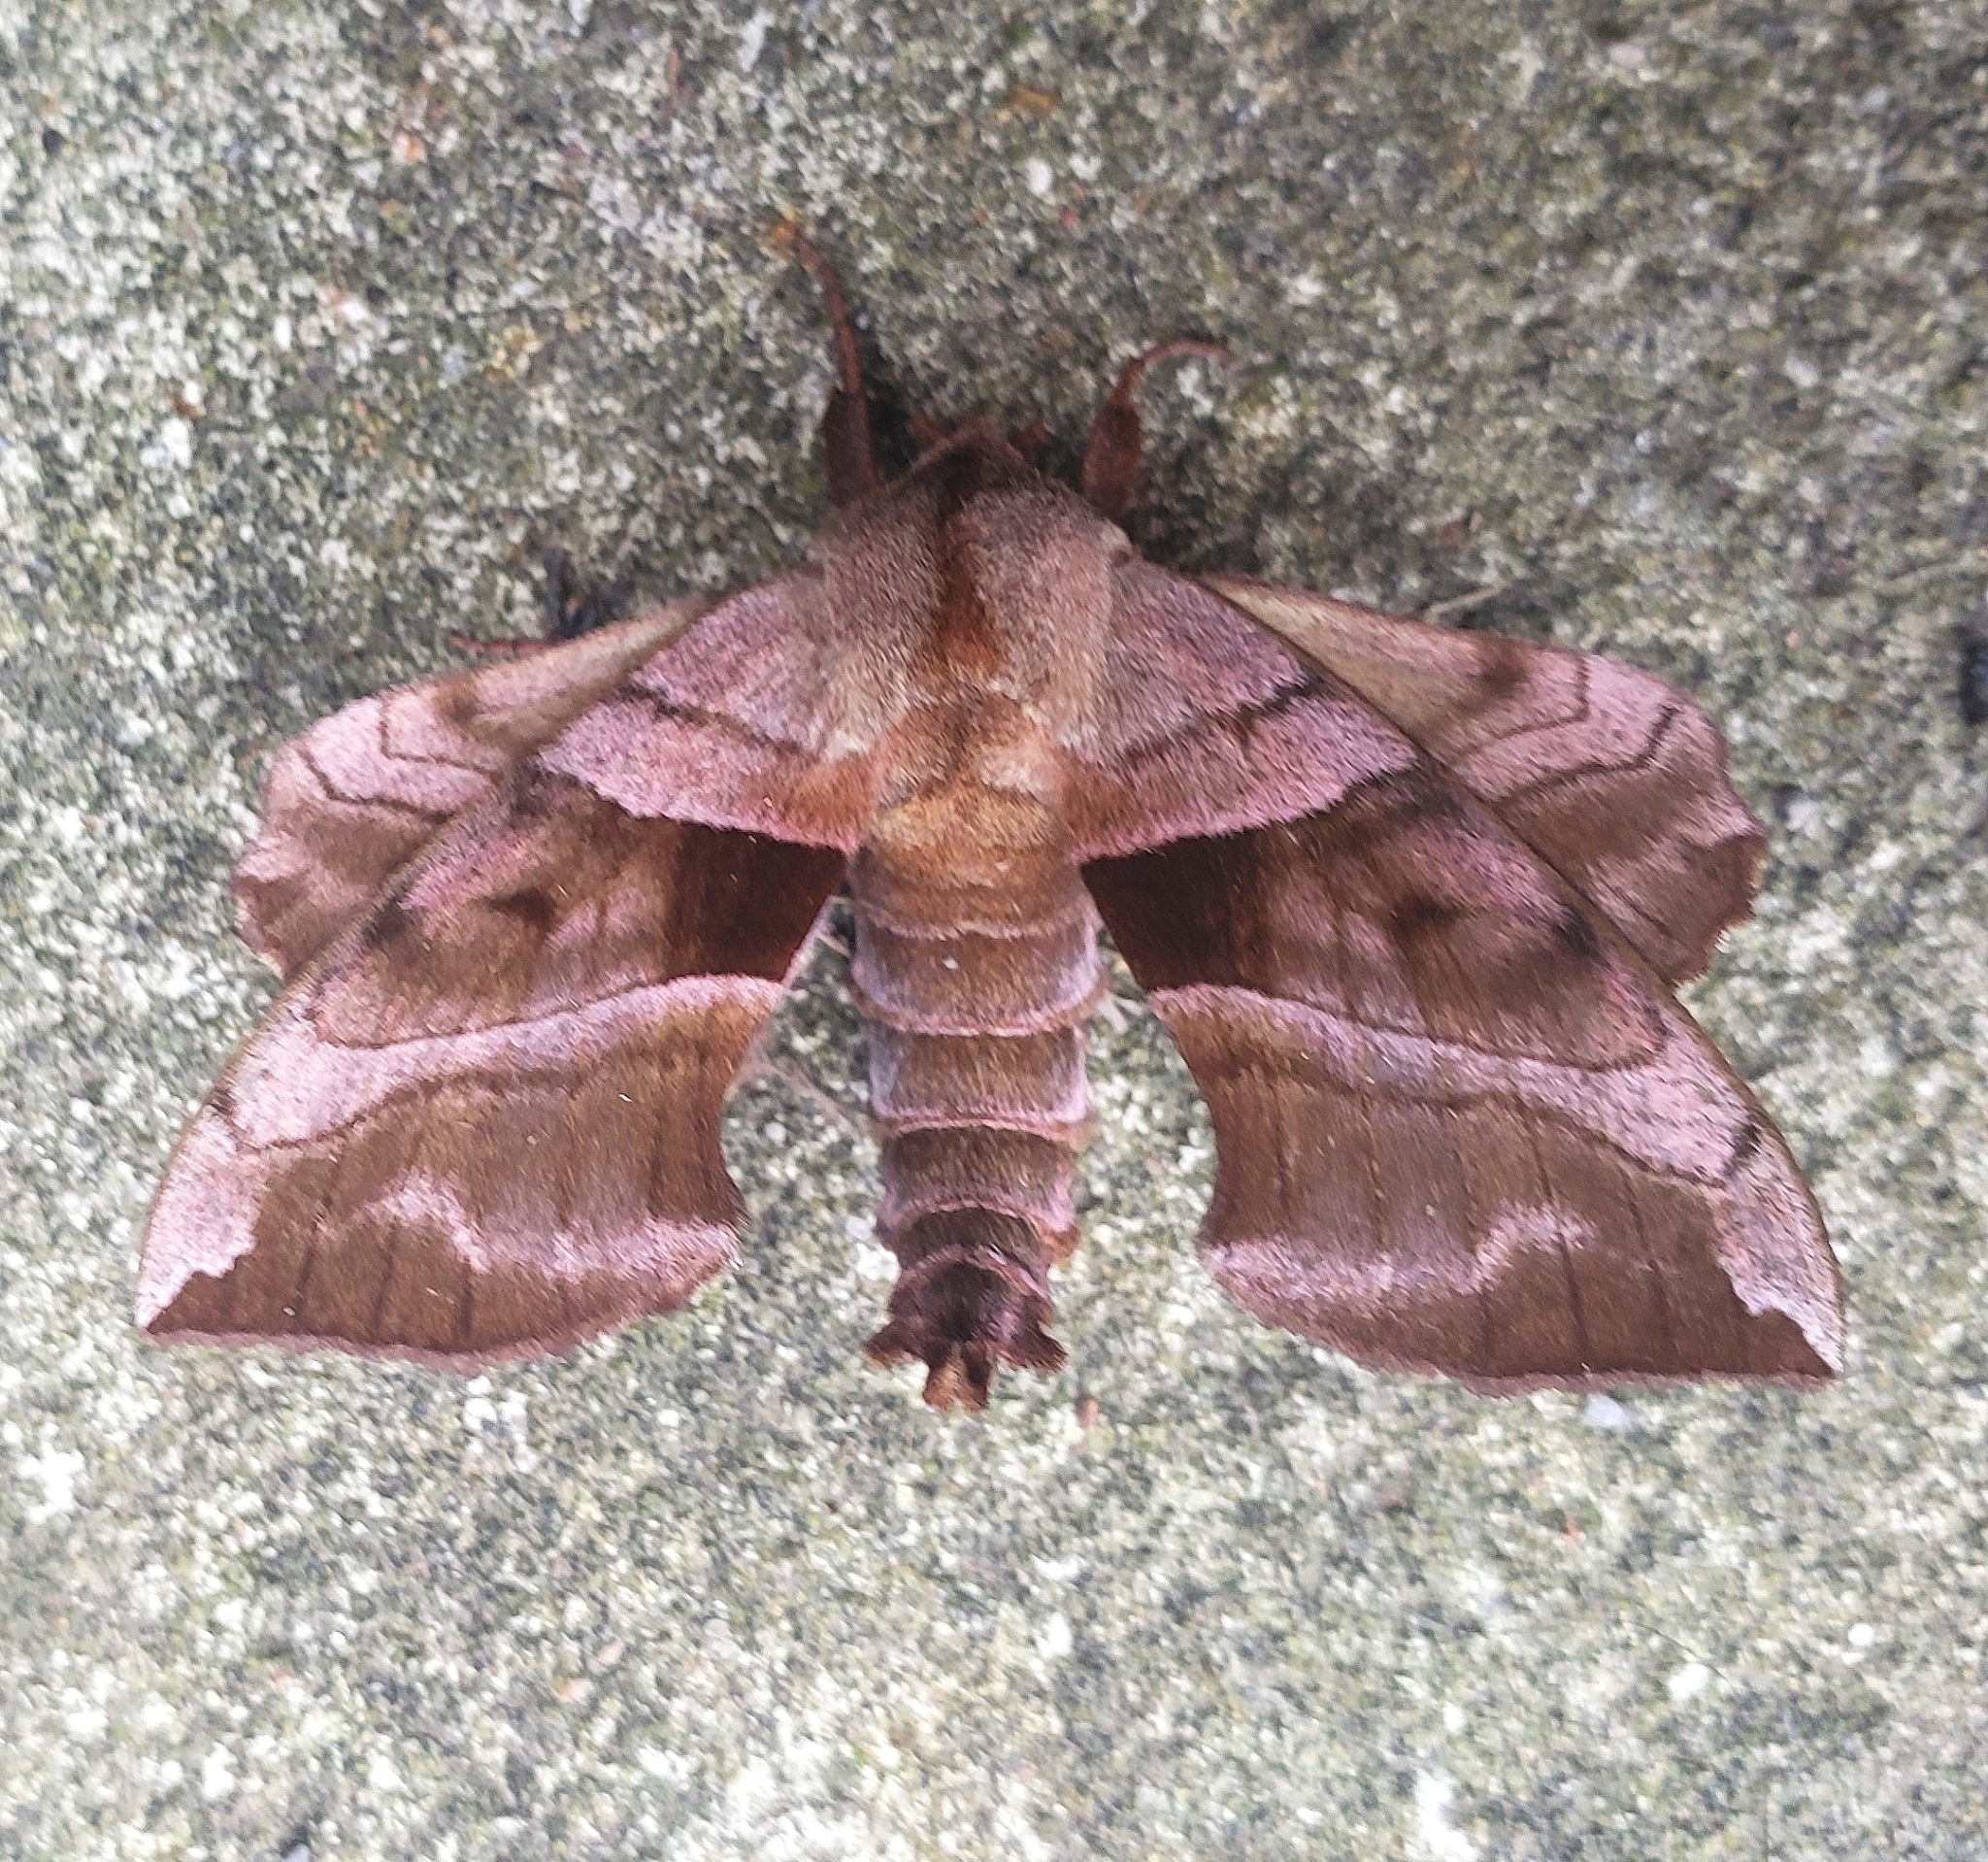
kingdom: Animalia
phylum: Arthropoda
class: Insecta
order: Lepidoptera
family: Sphingidae
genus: Amorpha
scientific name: Amorpha juglandis
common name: Walnut sphinx
